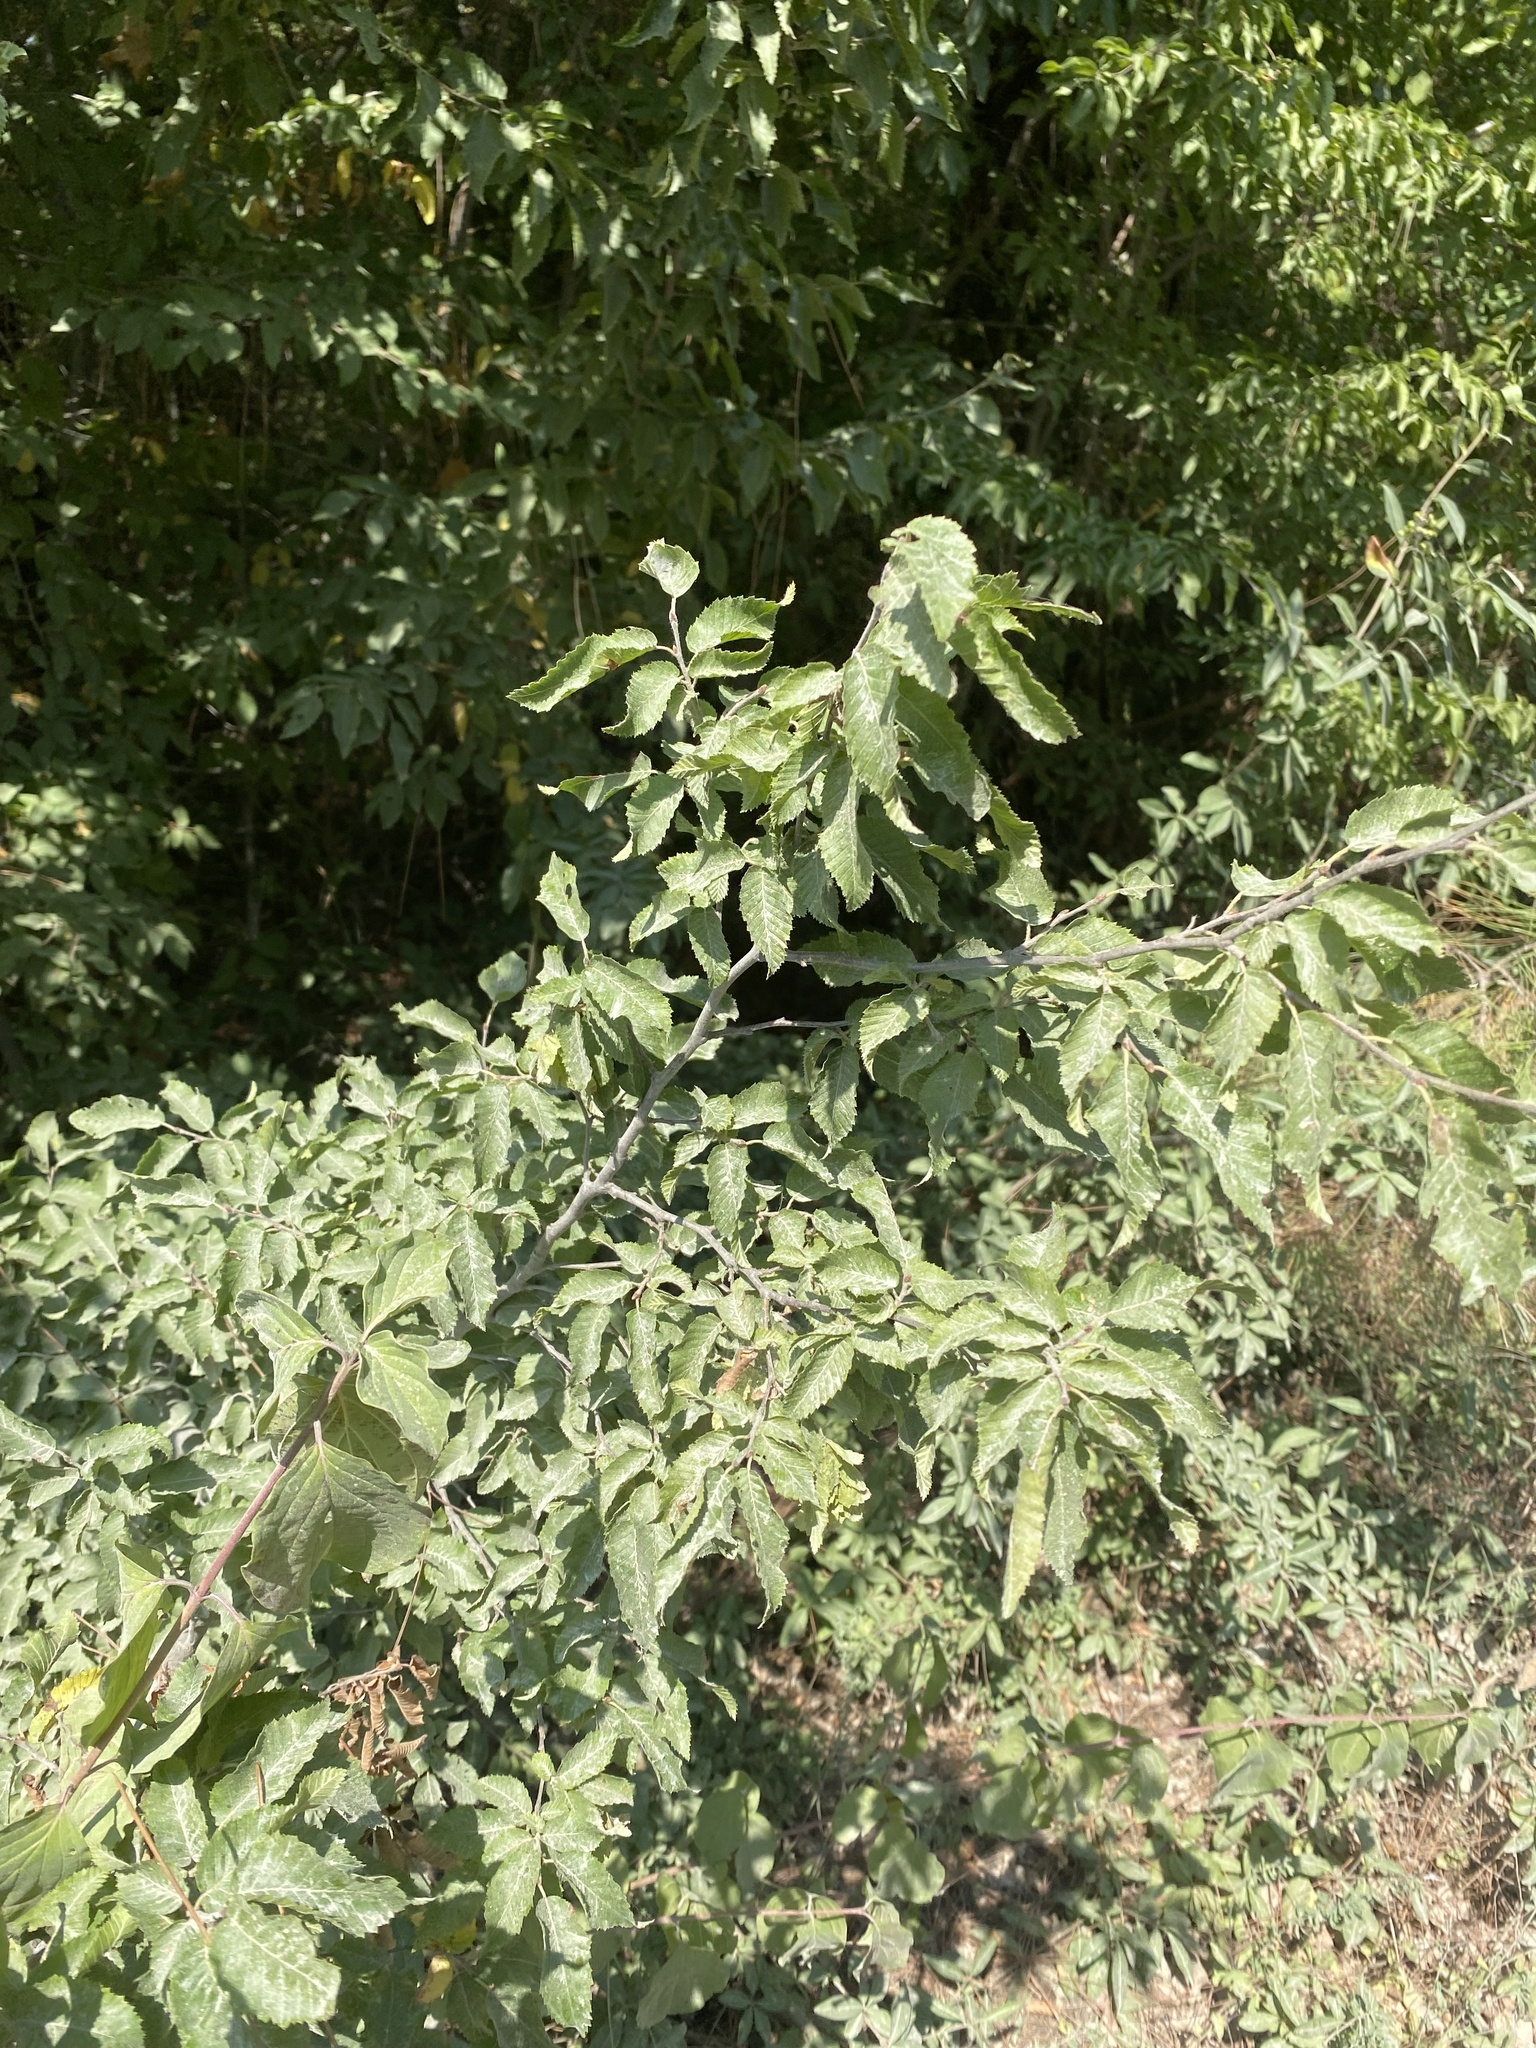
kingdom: Plantae
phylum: Tracheophyta
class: Magnoliopsida
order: Fagales
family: Betulaceae
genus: Carpinus
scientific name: Carpinus orientalis
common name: Eastern hornbeam
